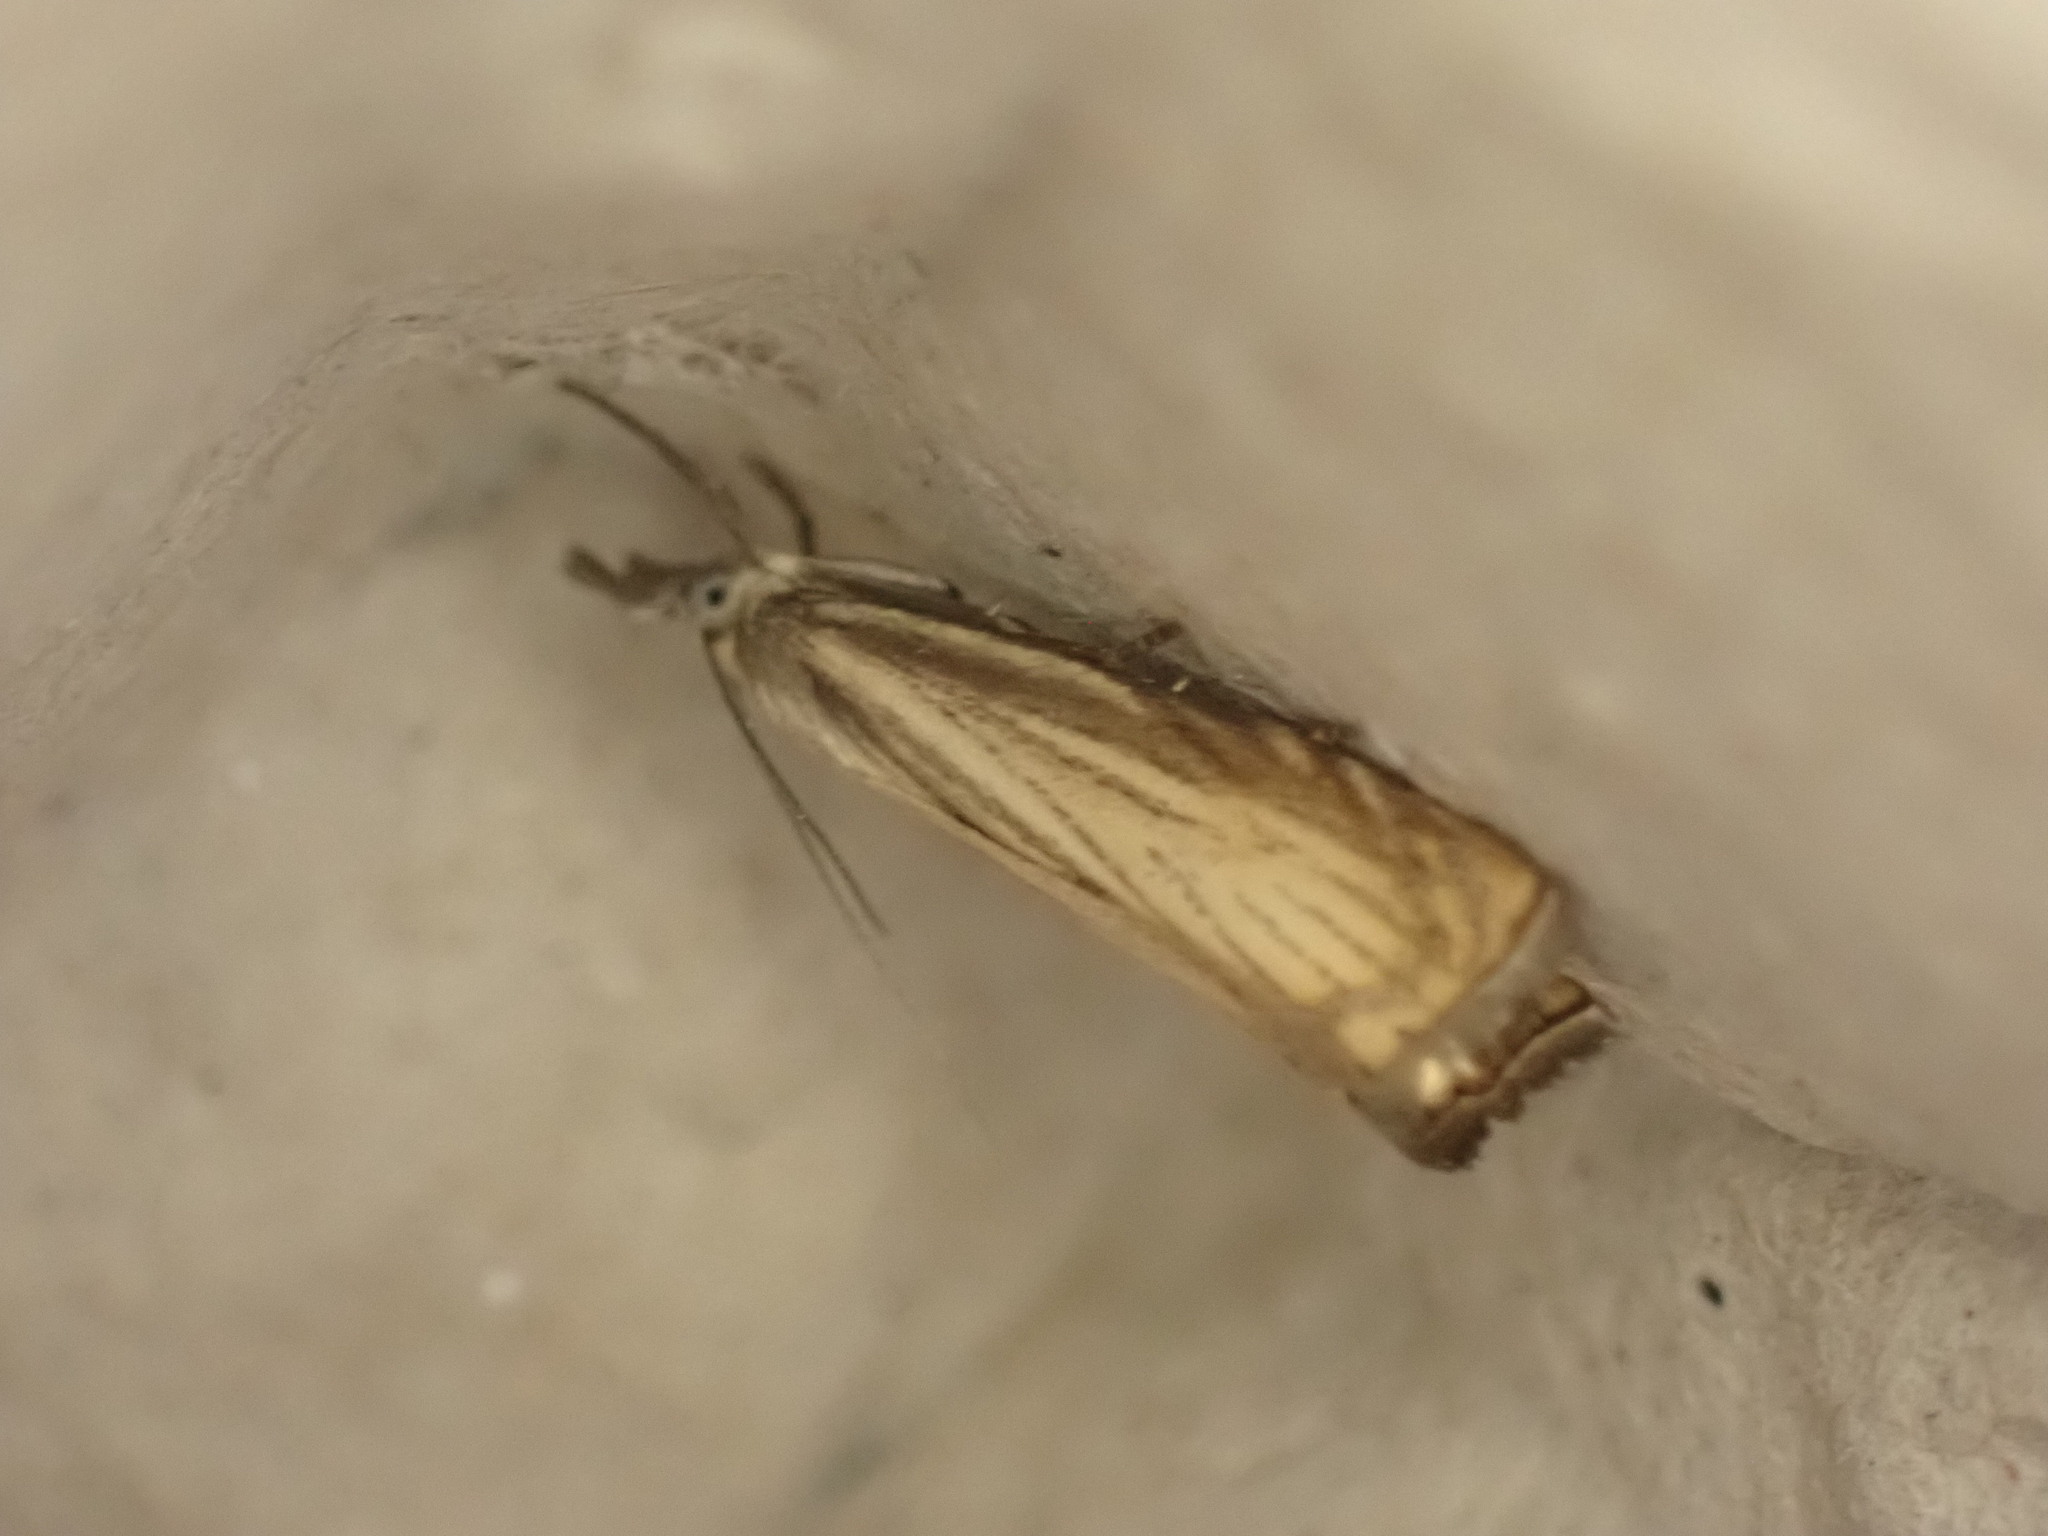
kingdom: Animalia
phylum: Arthropoda
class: Insecta
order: Lepidoptera
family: Crambidae
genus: Chrysoteuchia
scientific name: Chrysoteuchia culmella
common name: Garden grass-veneer
